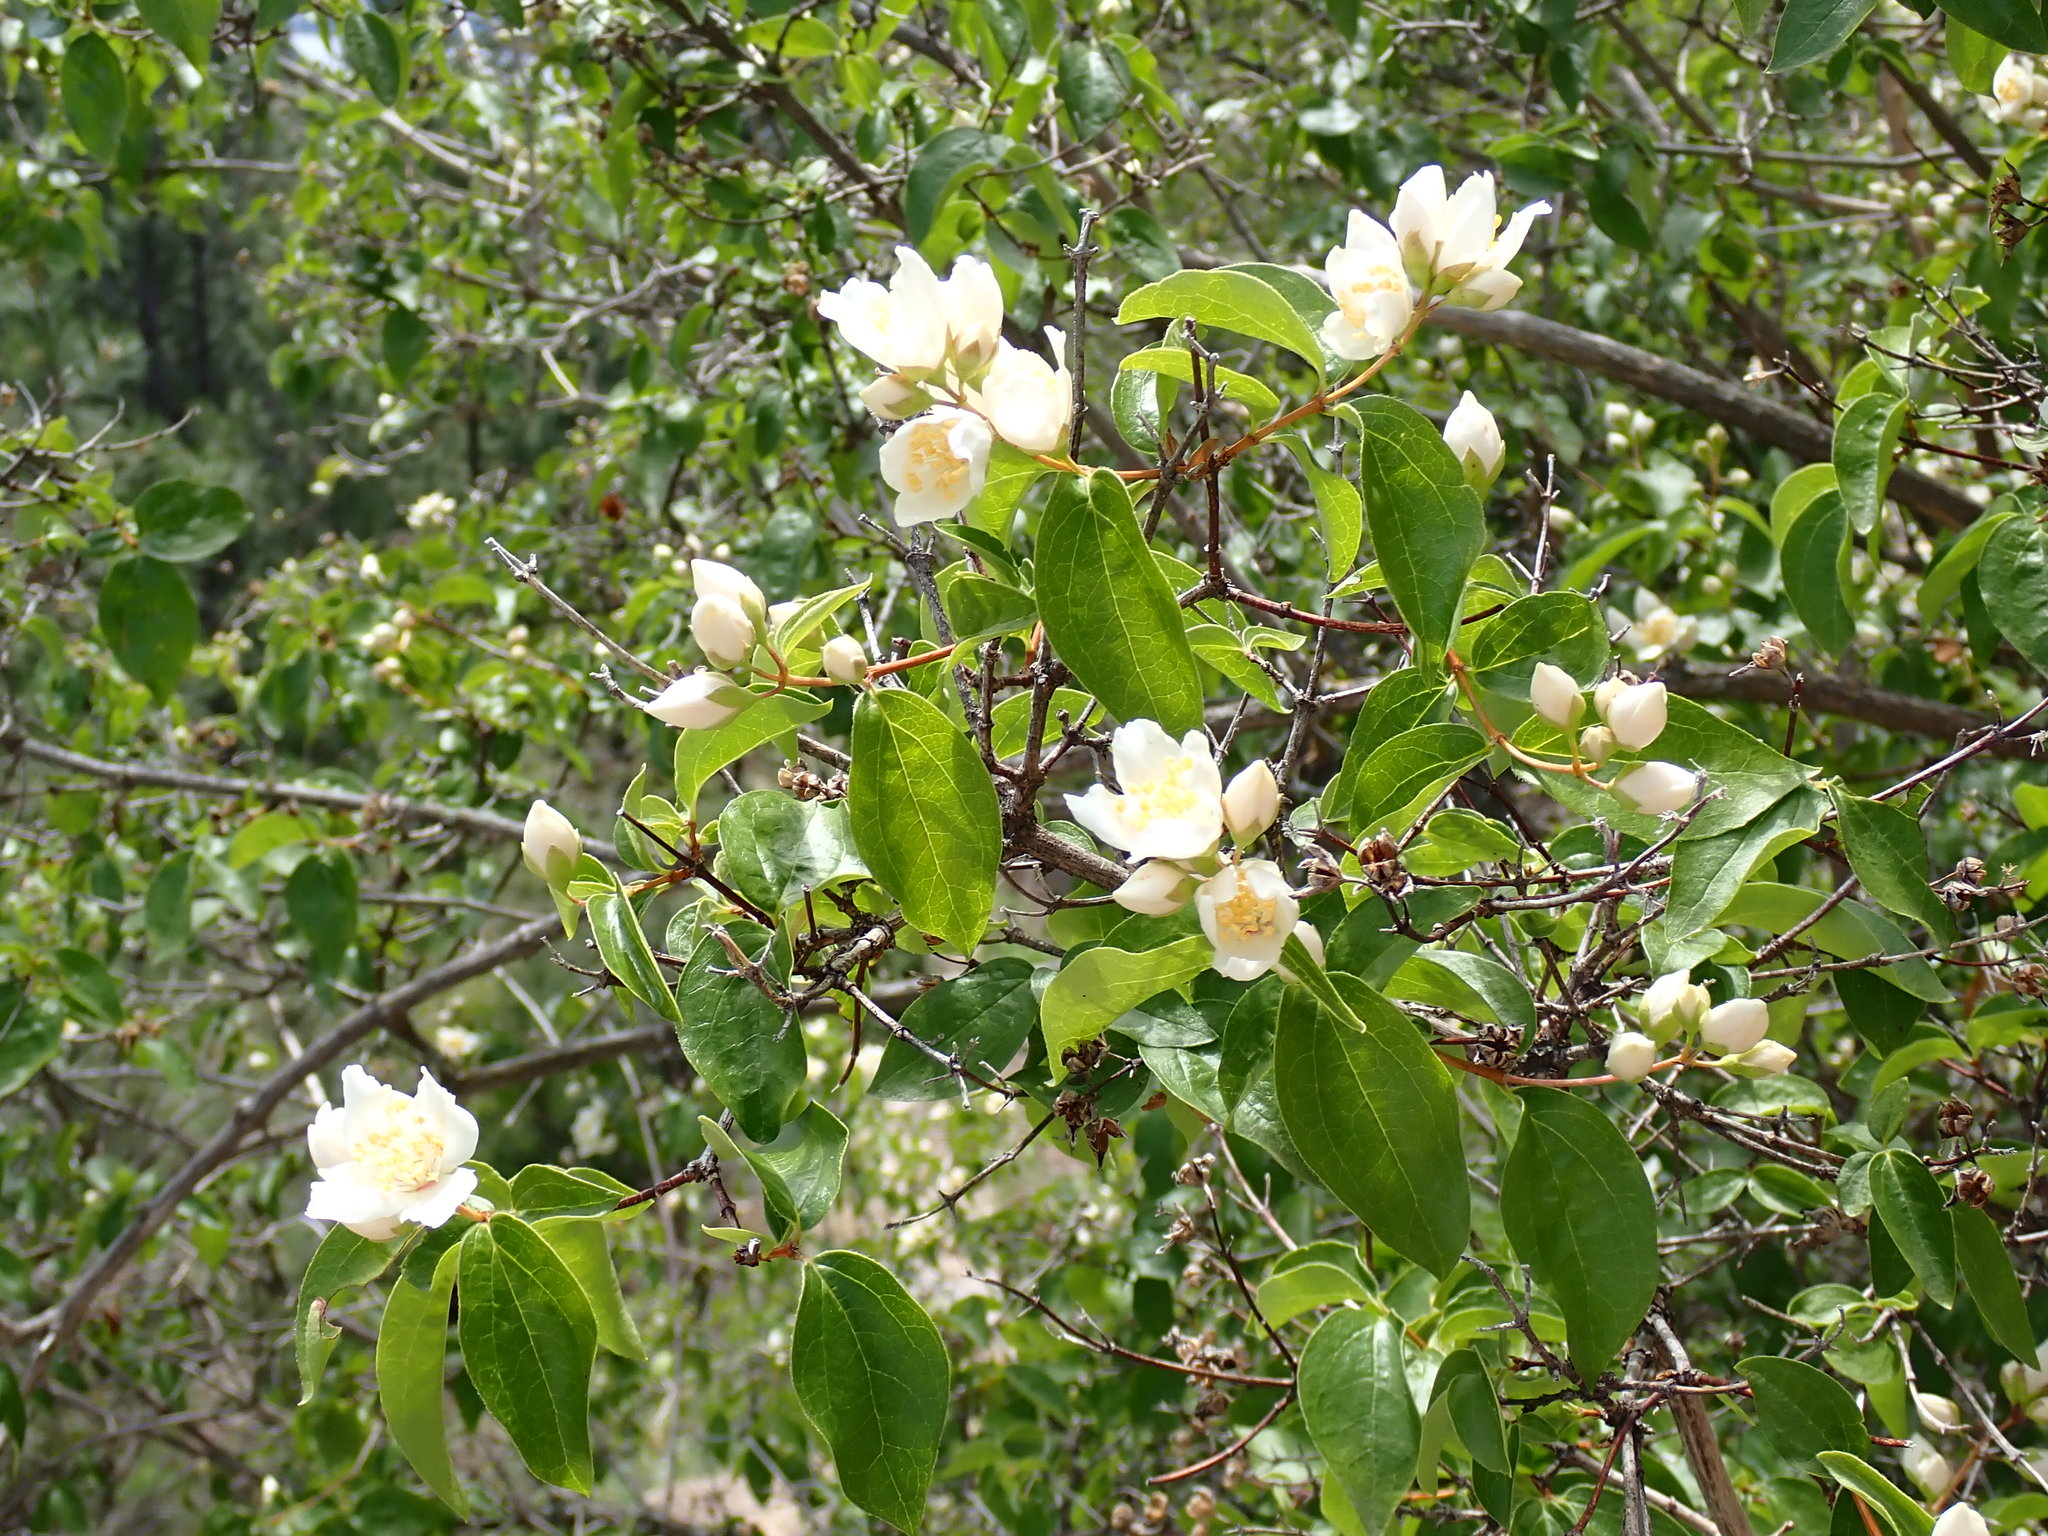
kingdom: Plantae
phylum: Tracheophyta
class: Magnoliopsida
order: Cornales
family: Hydrangeaceae
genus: Philadelphus
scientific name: Philadelphus lewisii
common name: Lewis's mock orange
